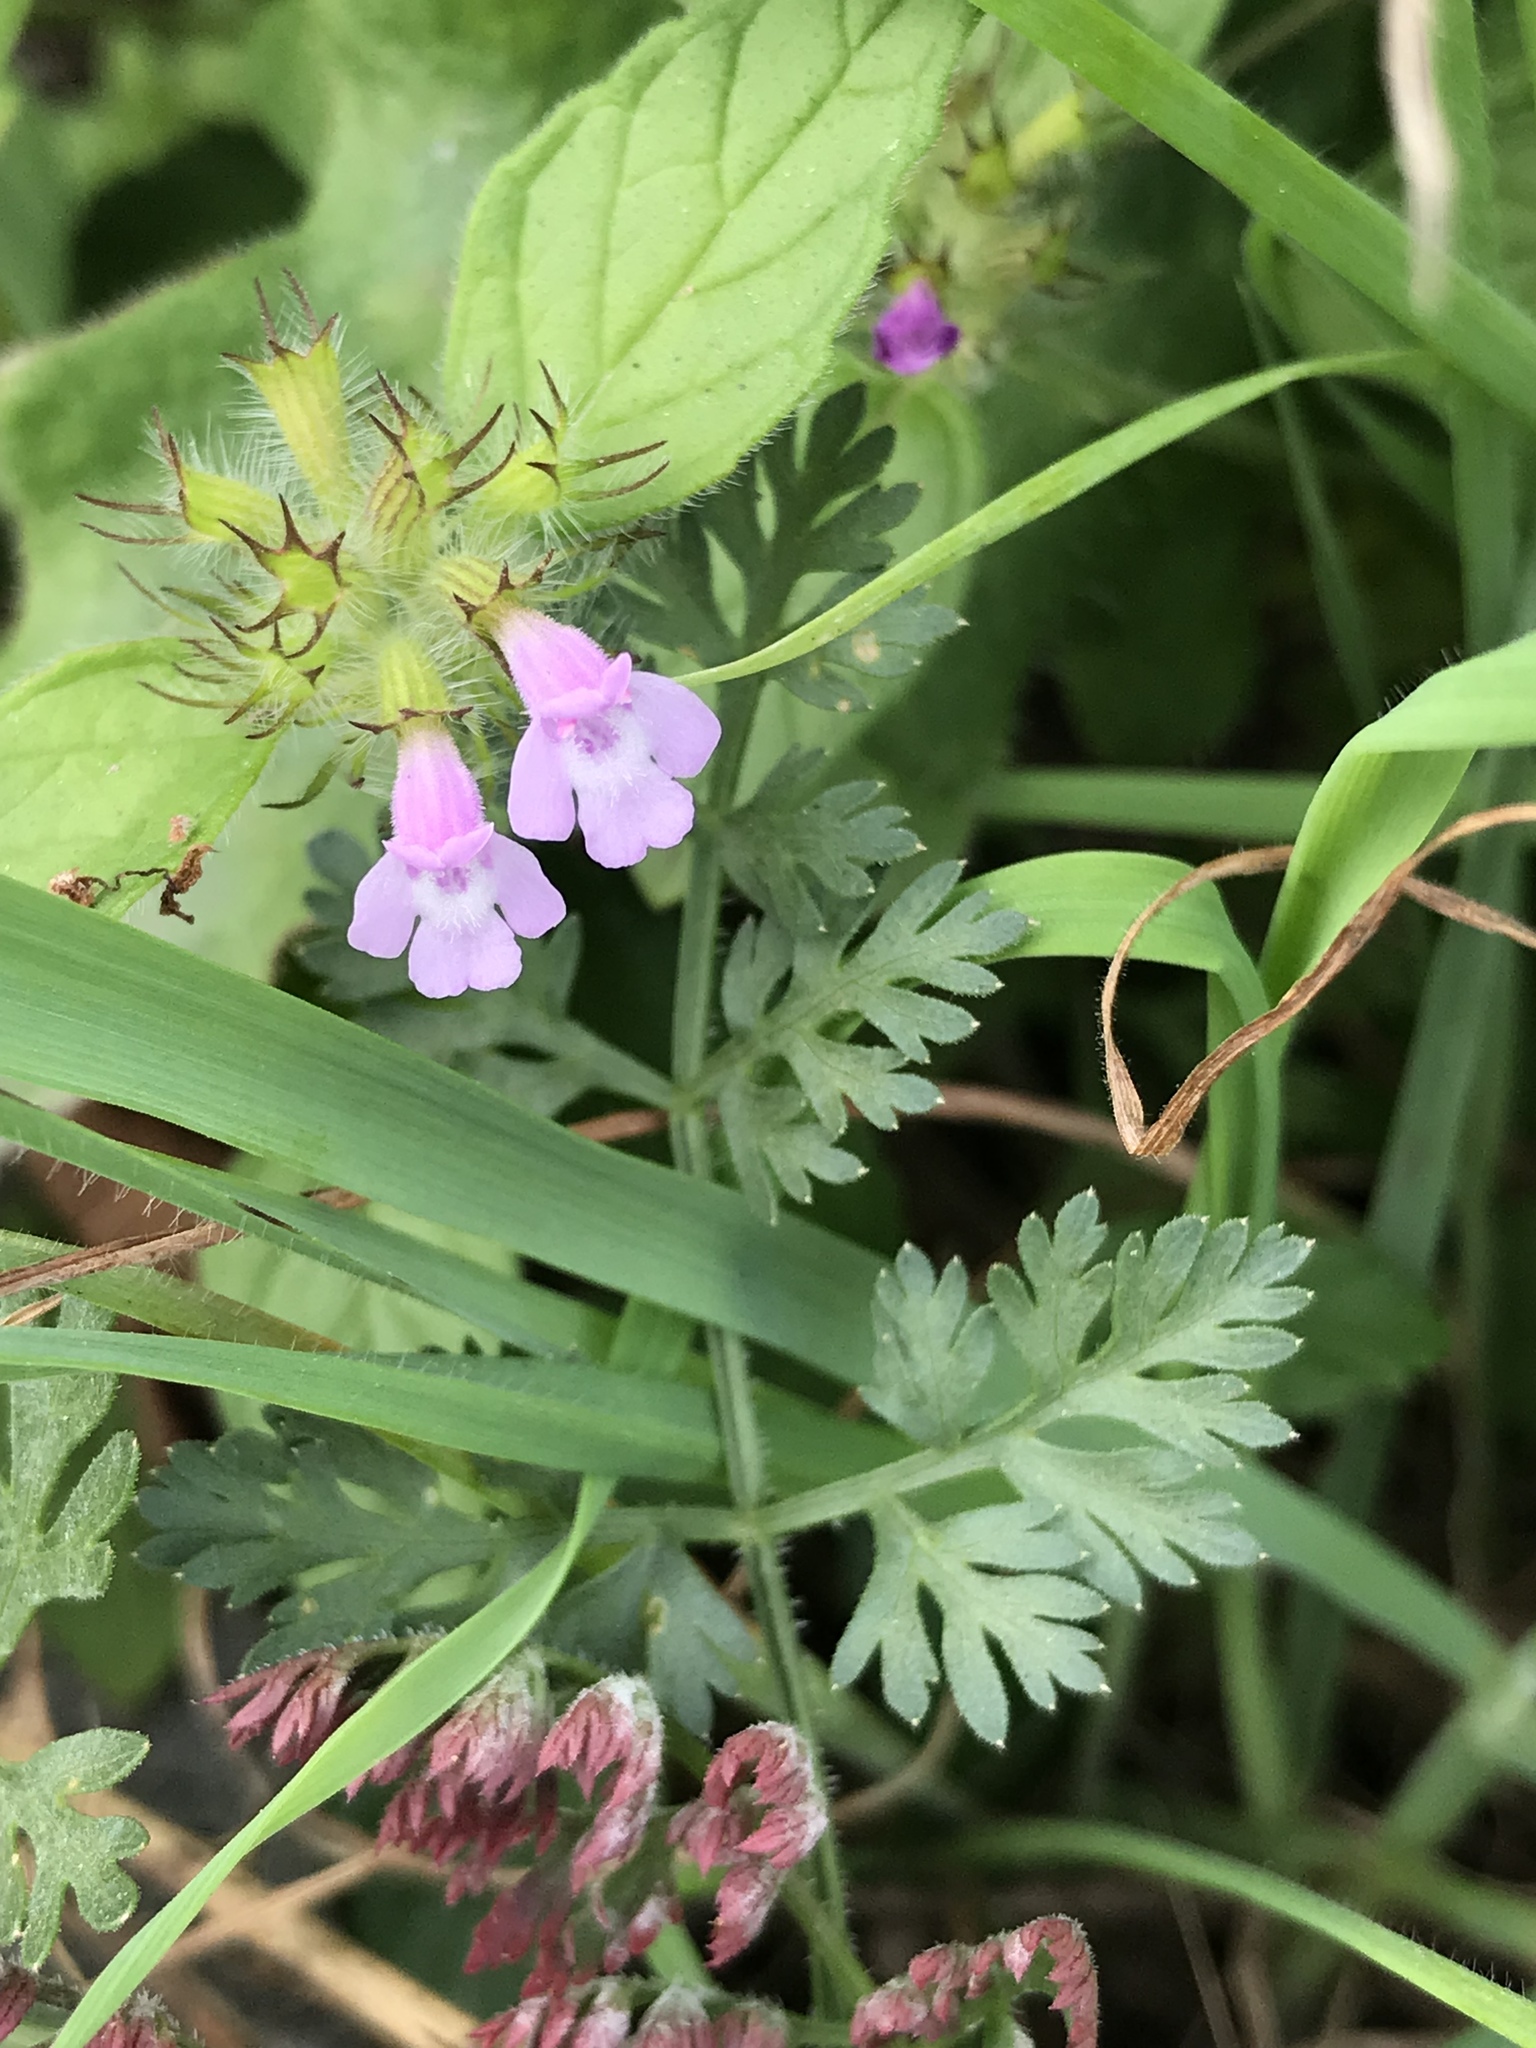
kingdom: Plantae
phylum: Tracheophyta
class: Magnoliopsida
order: Lamiales
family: Lamiaceae
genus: Clinopodium
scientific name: Clinopodium vulgare
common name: Wild basil
